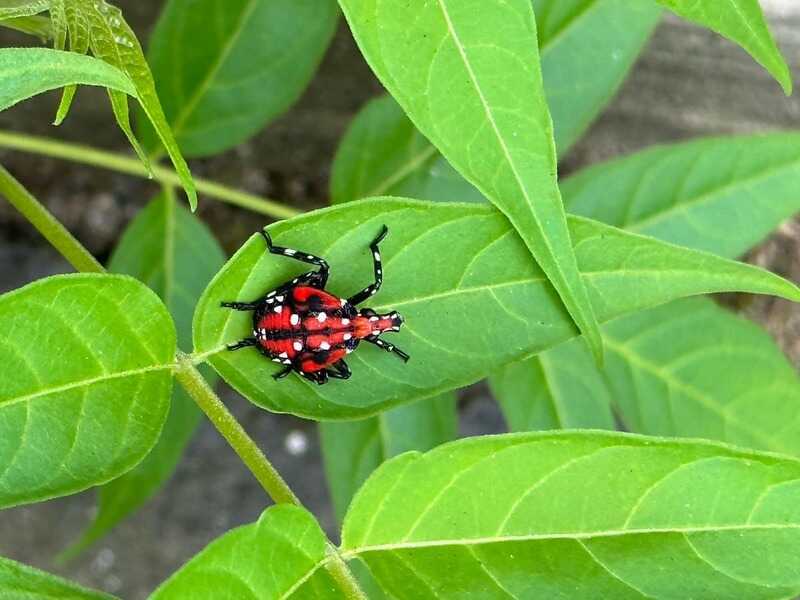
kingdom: Animalia
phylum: Arthropoda
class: Insecta
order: Hemiptera
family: Fulgoridae
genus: Lycorma
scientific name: Lycorma delicatula
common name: Spotted lanternfly
